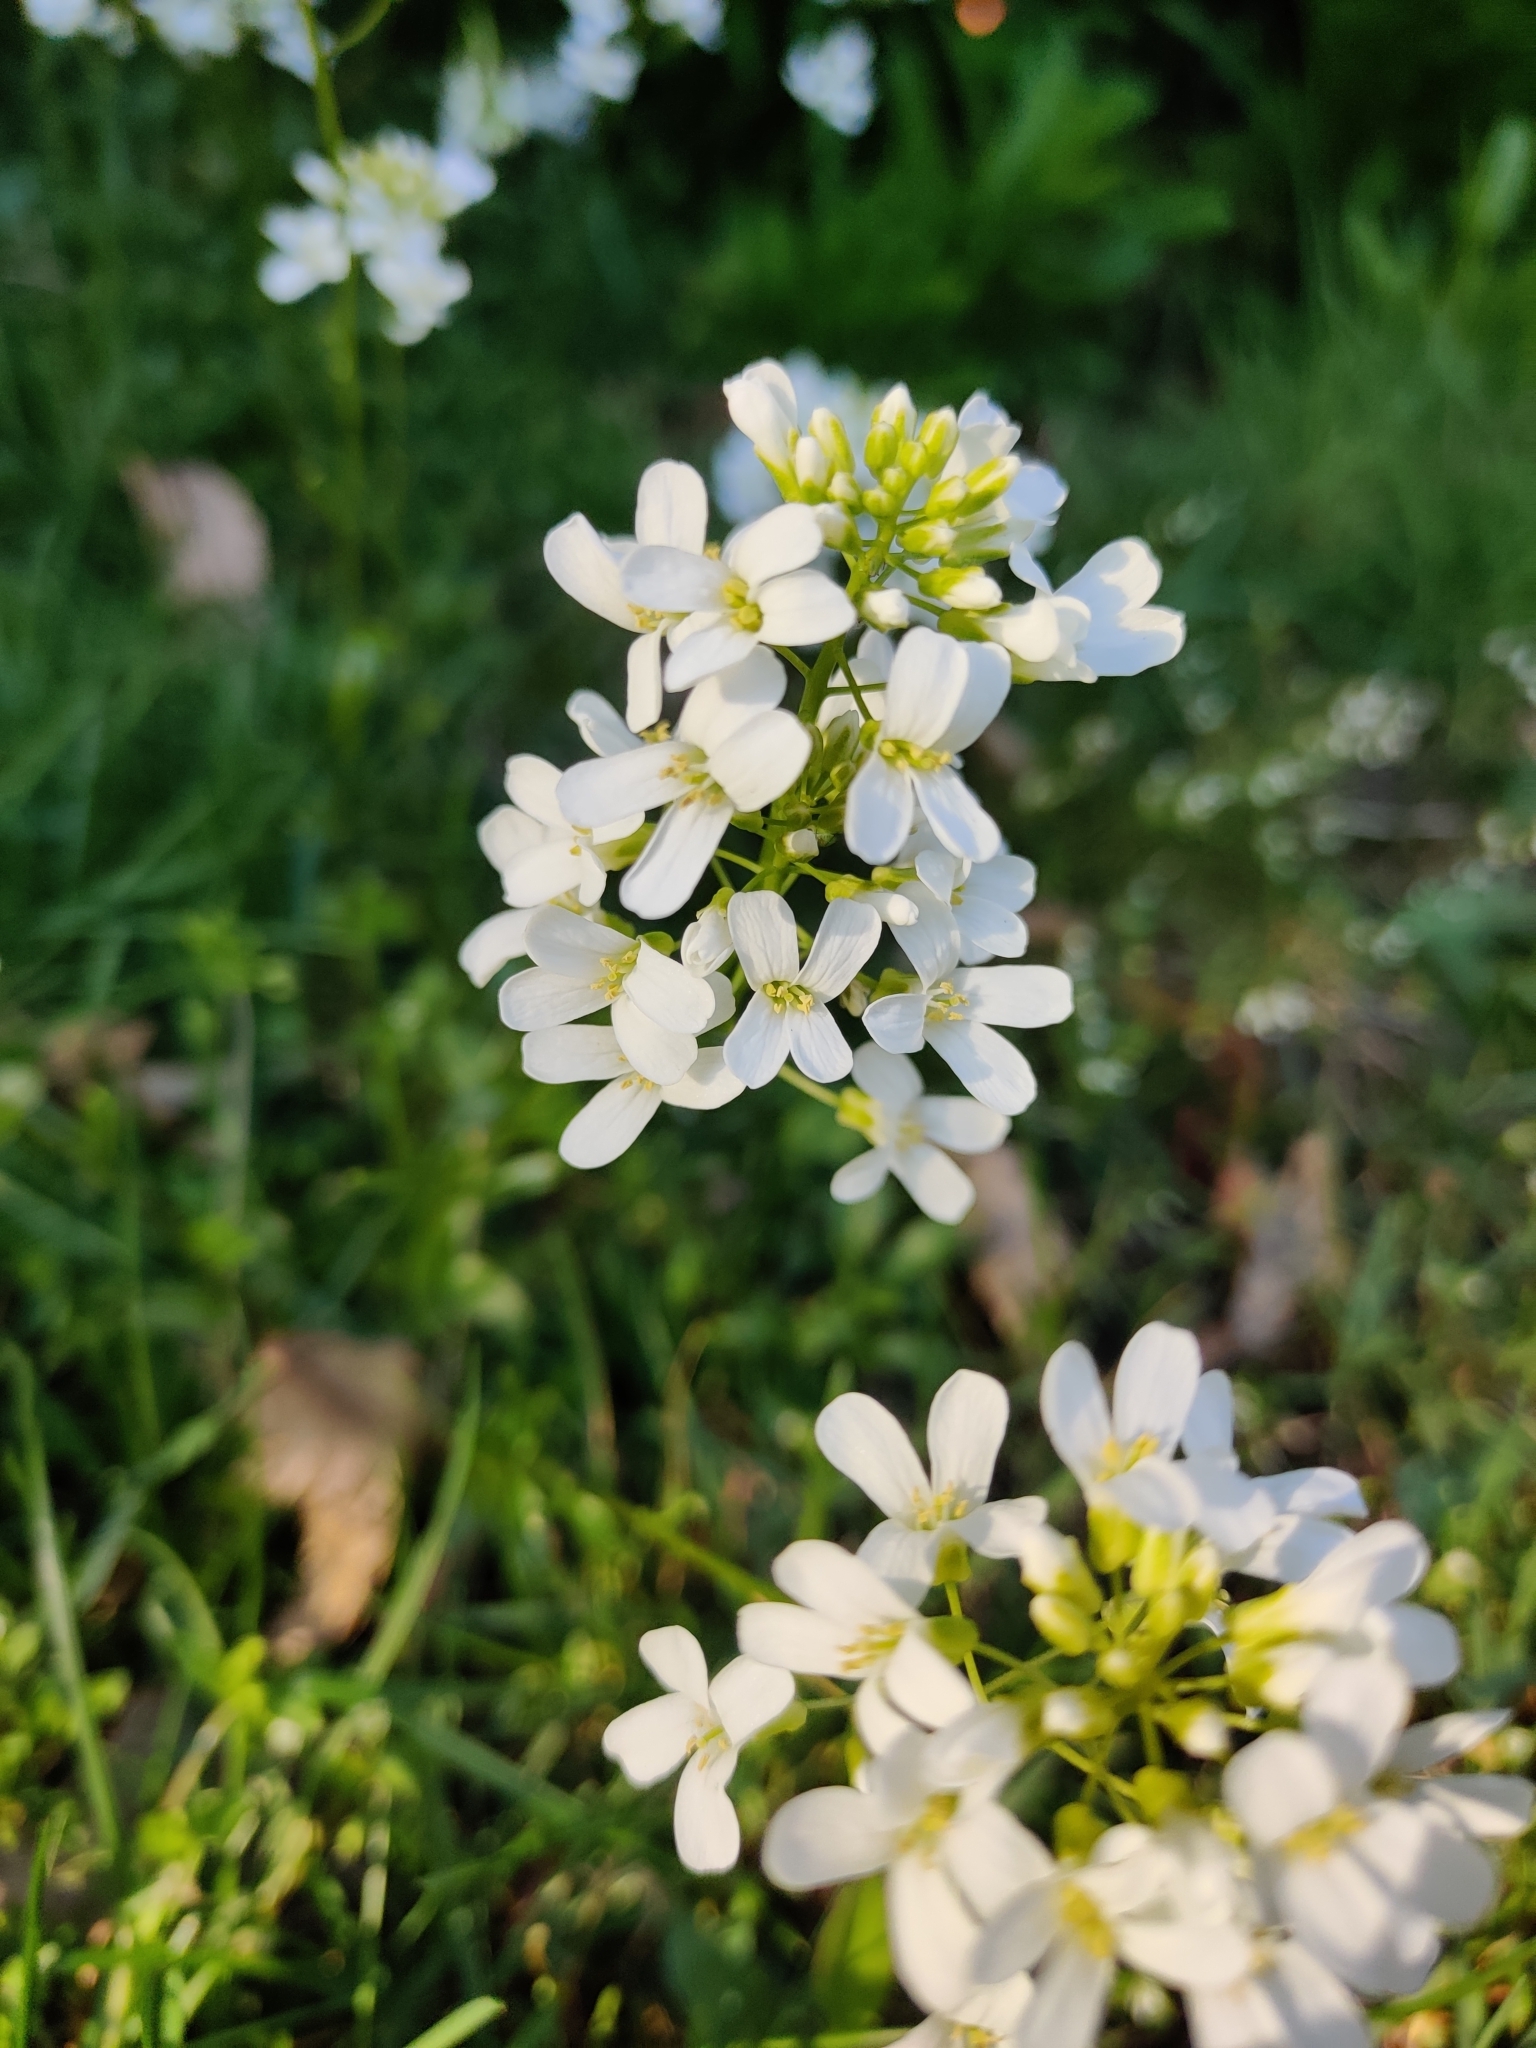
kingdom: Plantae
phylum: Tracheophyta
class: Magnoliopsida
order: Brassicales
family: Brassicaceae
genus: Cardamine
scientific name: Cardamine pratensis
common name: Cuckoo flower
